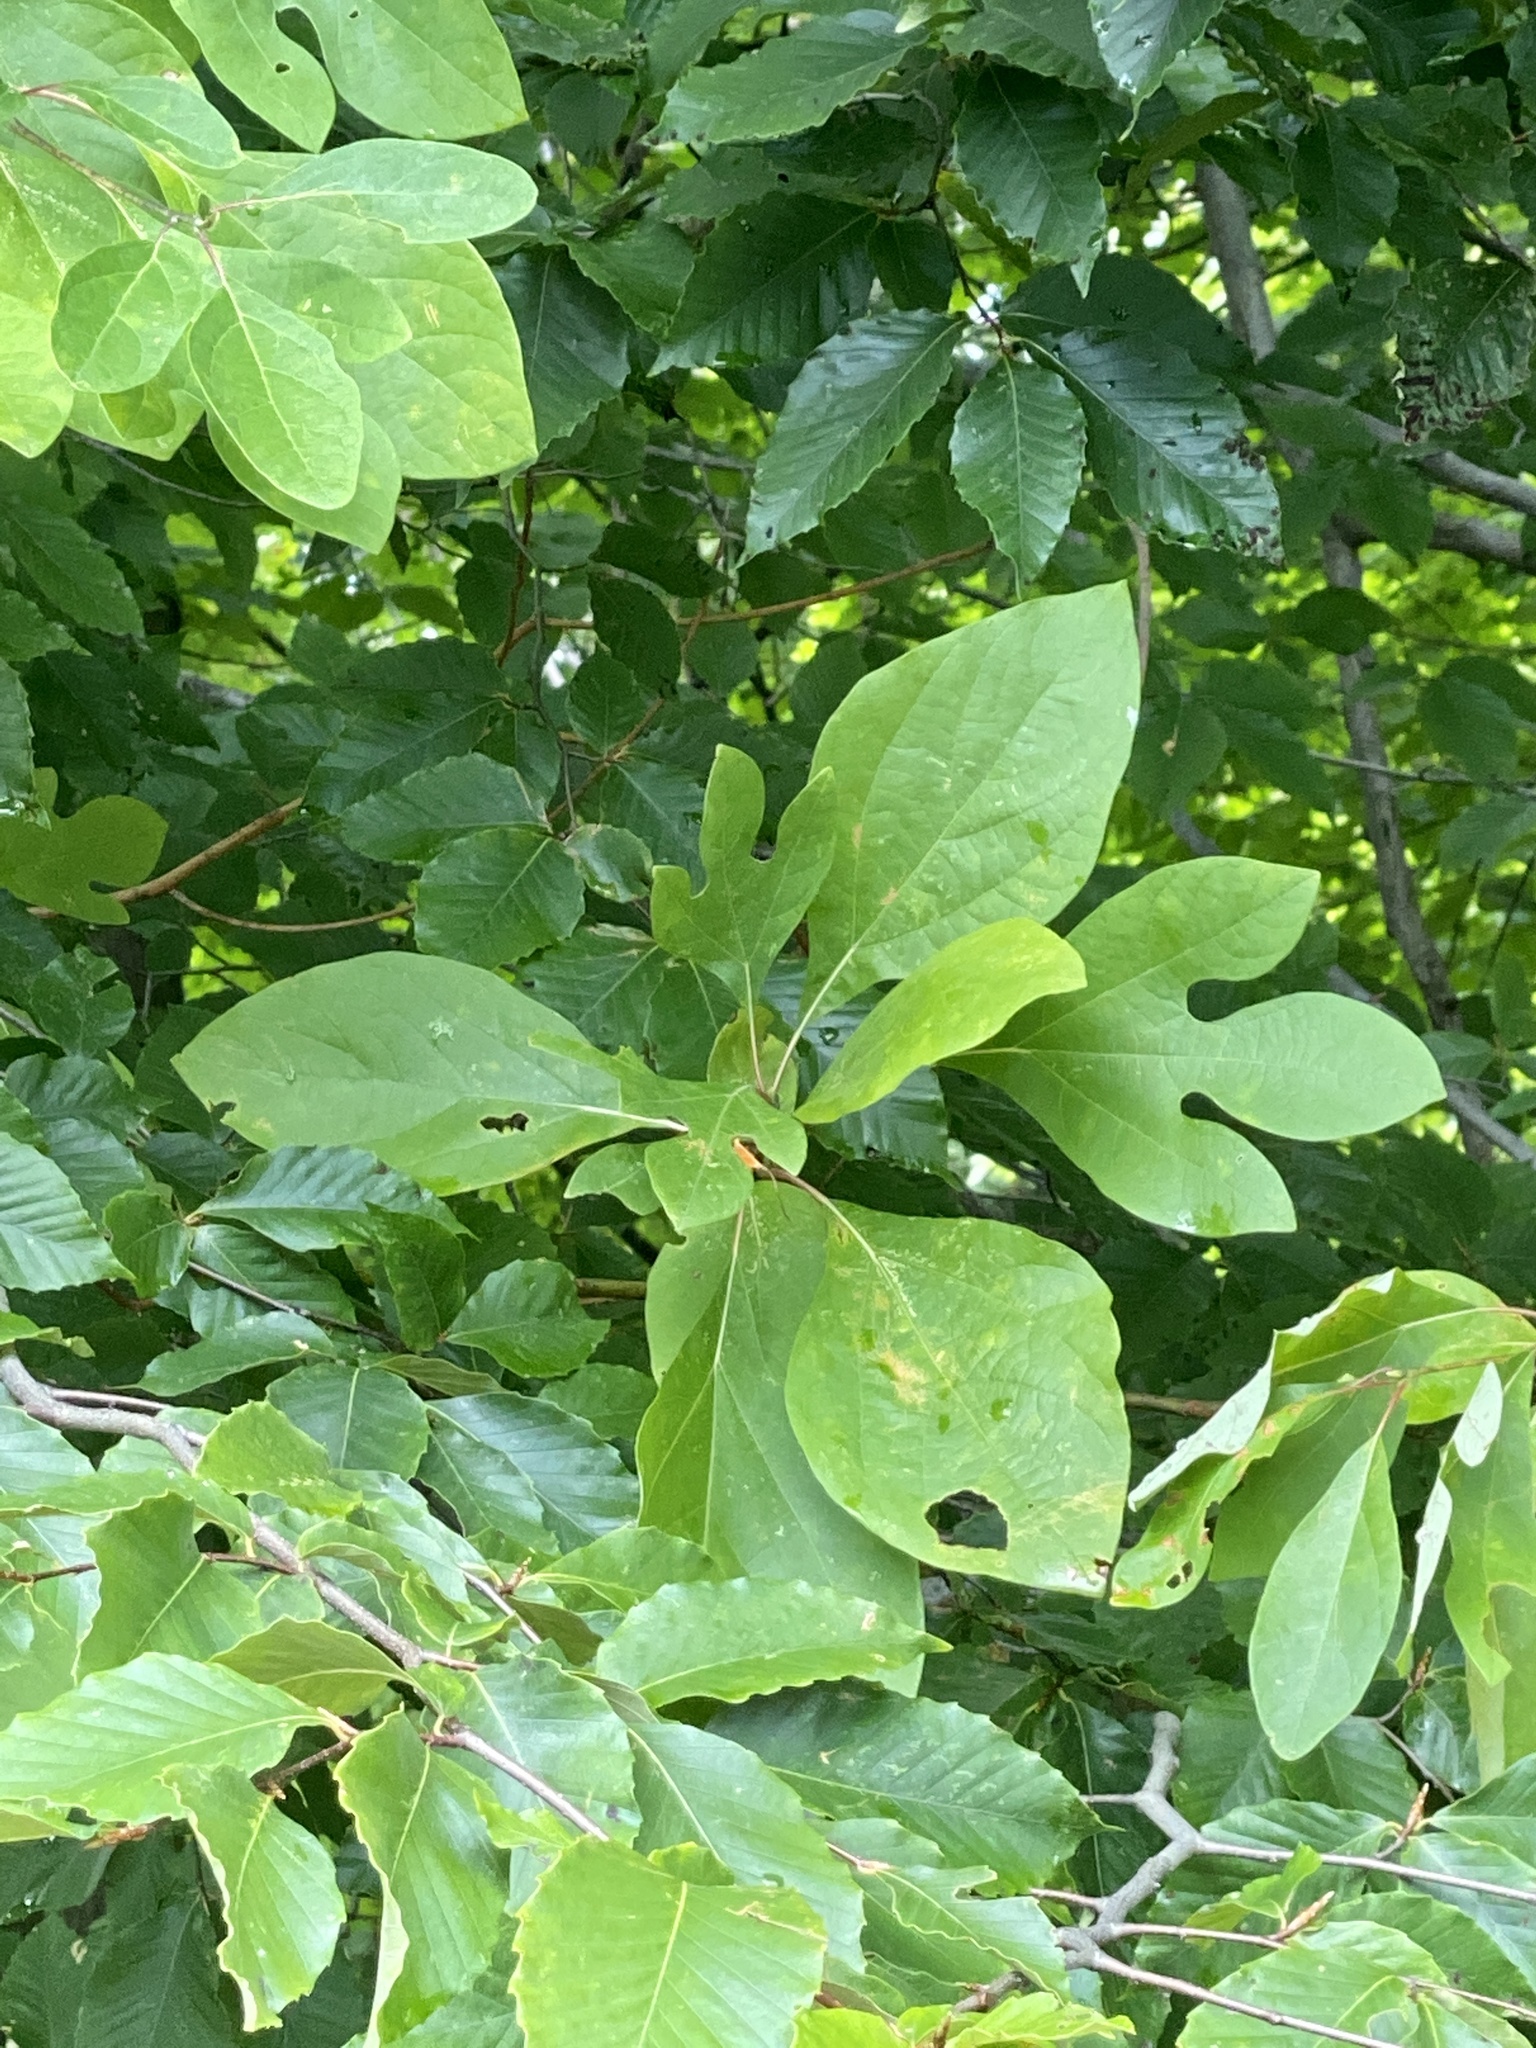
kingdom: Plantae
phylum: Tracheophyta
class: Magnoliopsida
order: Laurales
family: Lauraceae
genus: Sassafras
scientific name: Sassafras albidum
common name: Sassafras
